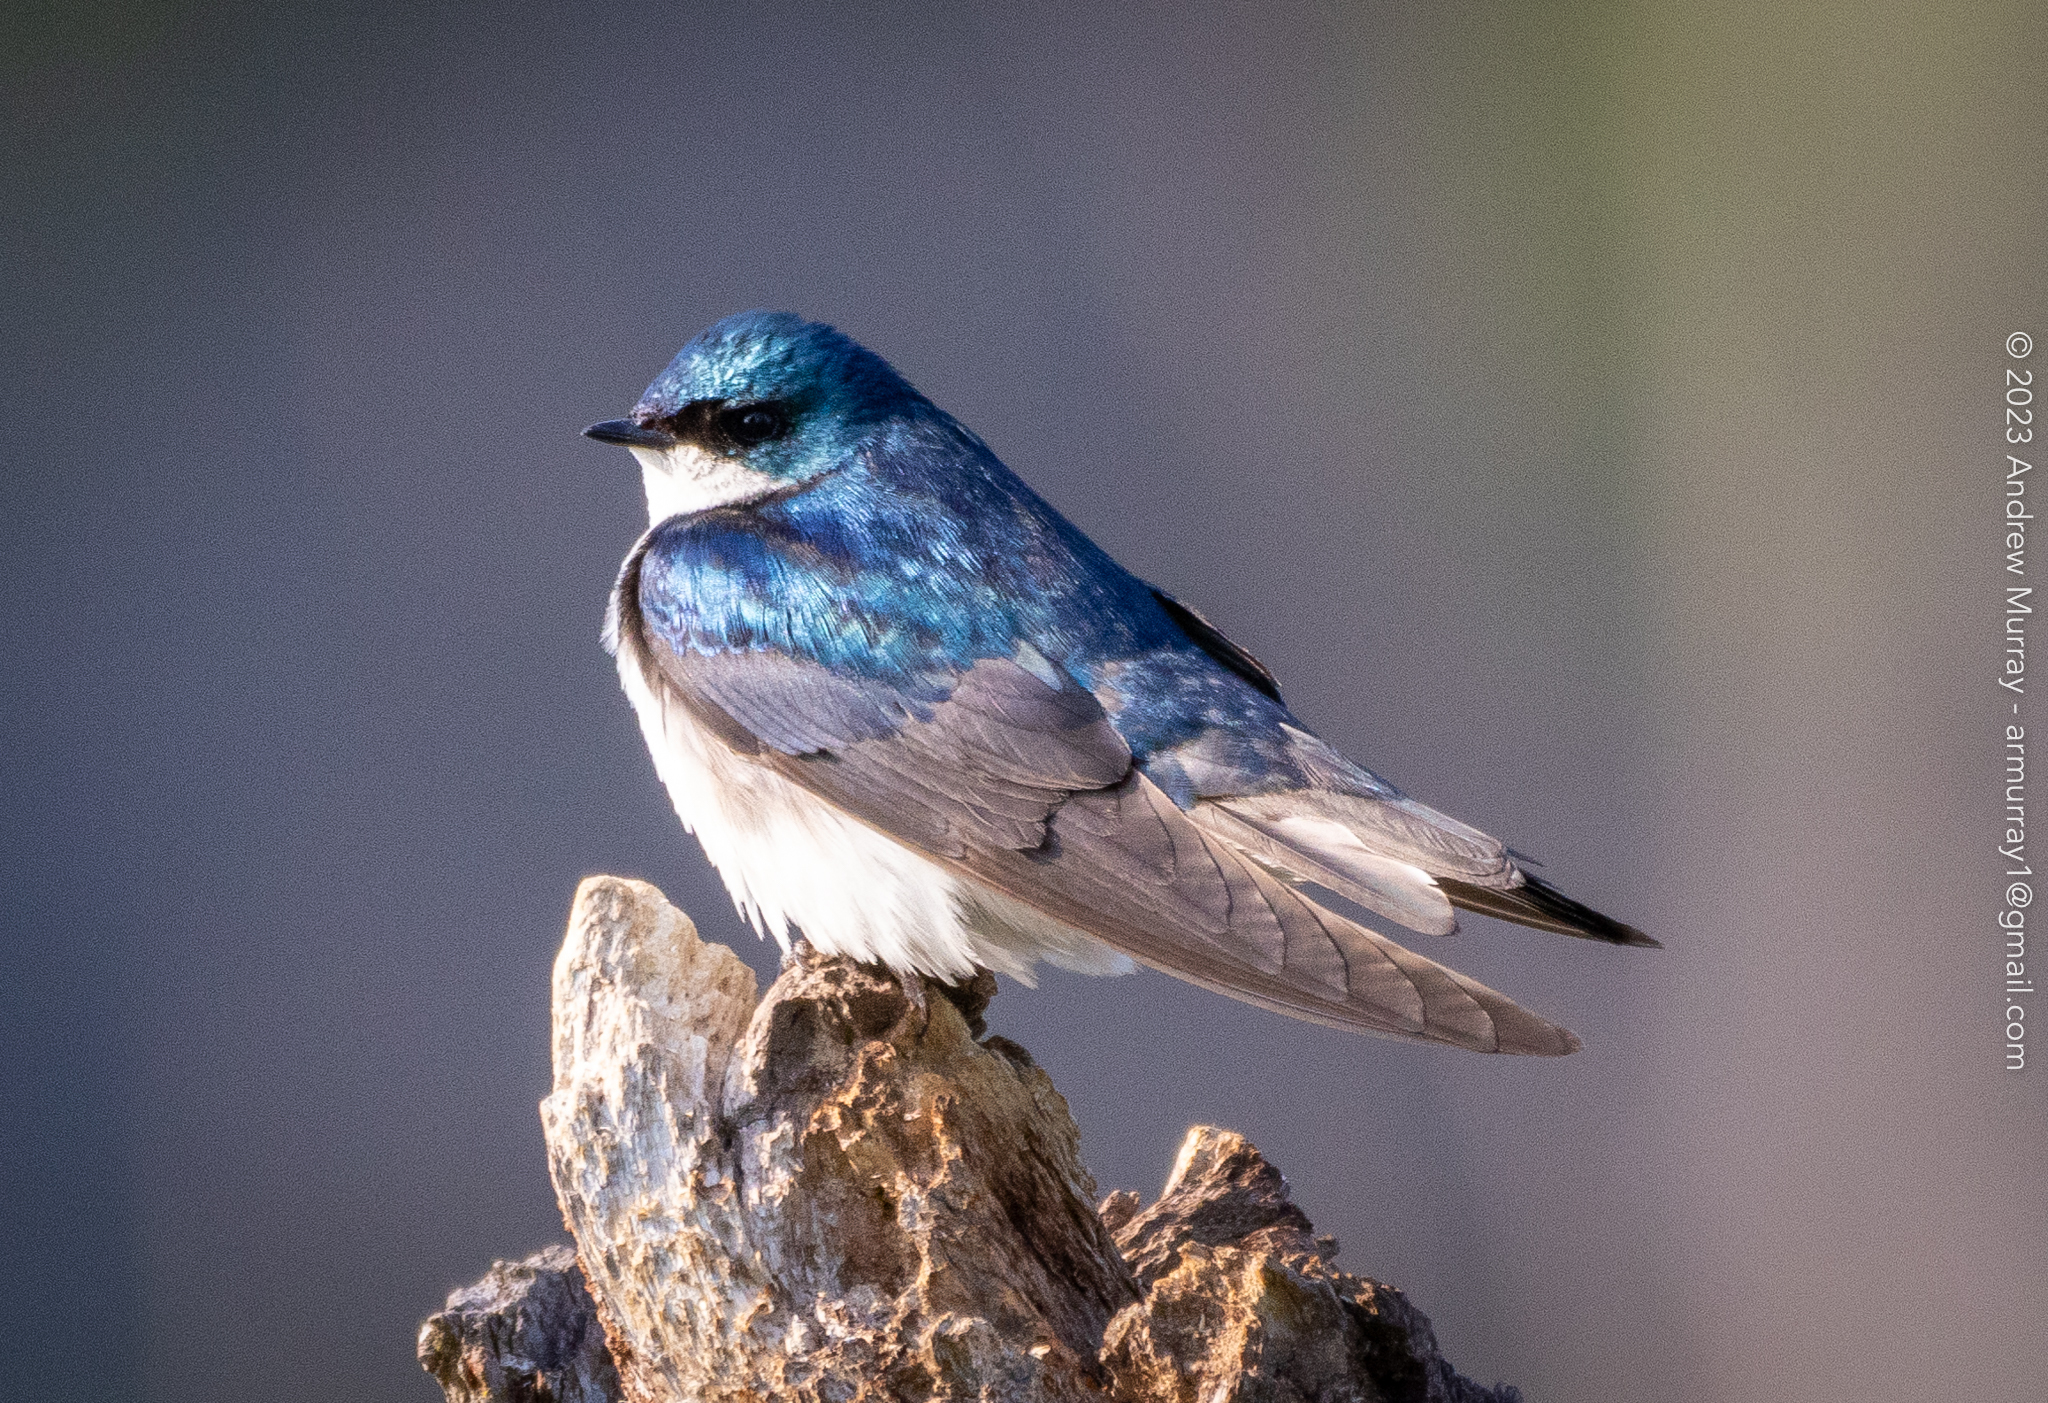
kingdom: Animalia
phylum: Chordata
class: Aves
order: Passeriformes
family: Hirundinidae
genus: Tachycineta
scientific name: Tachycineta bicolor
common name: Tree swallow
